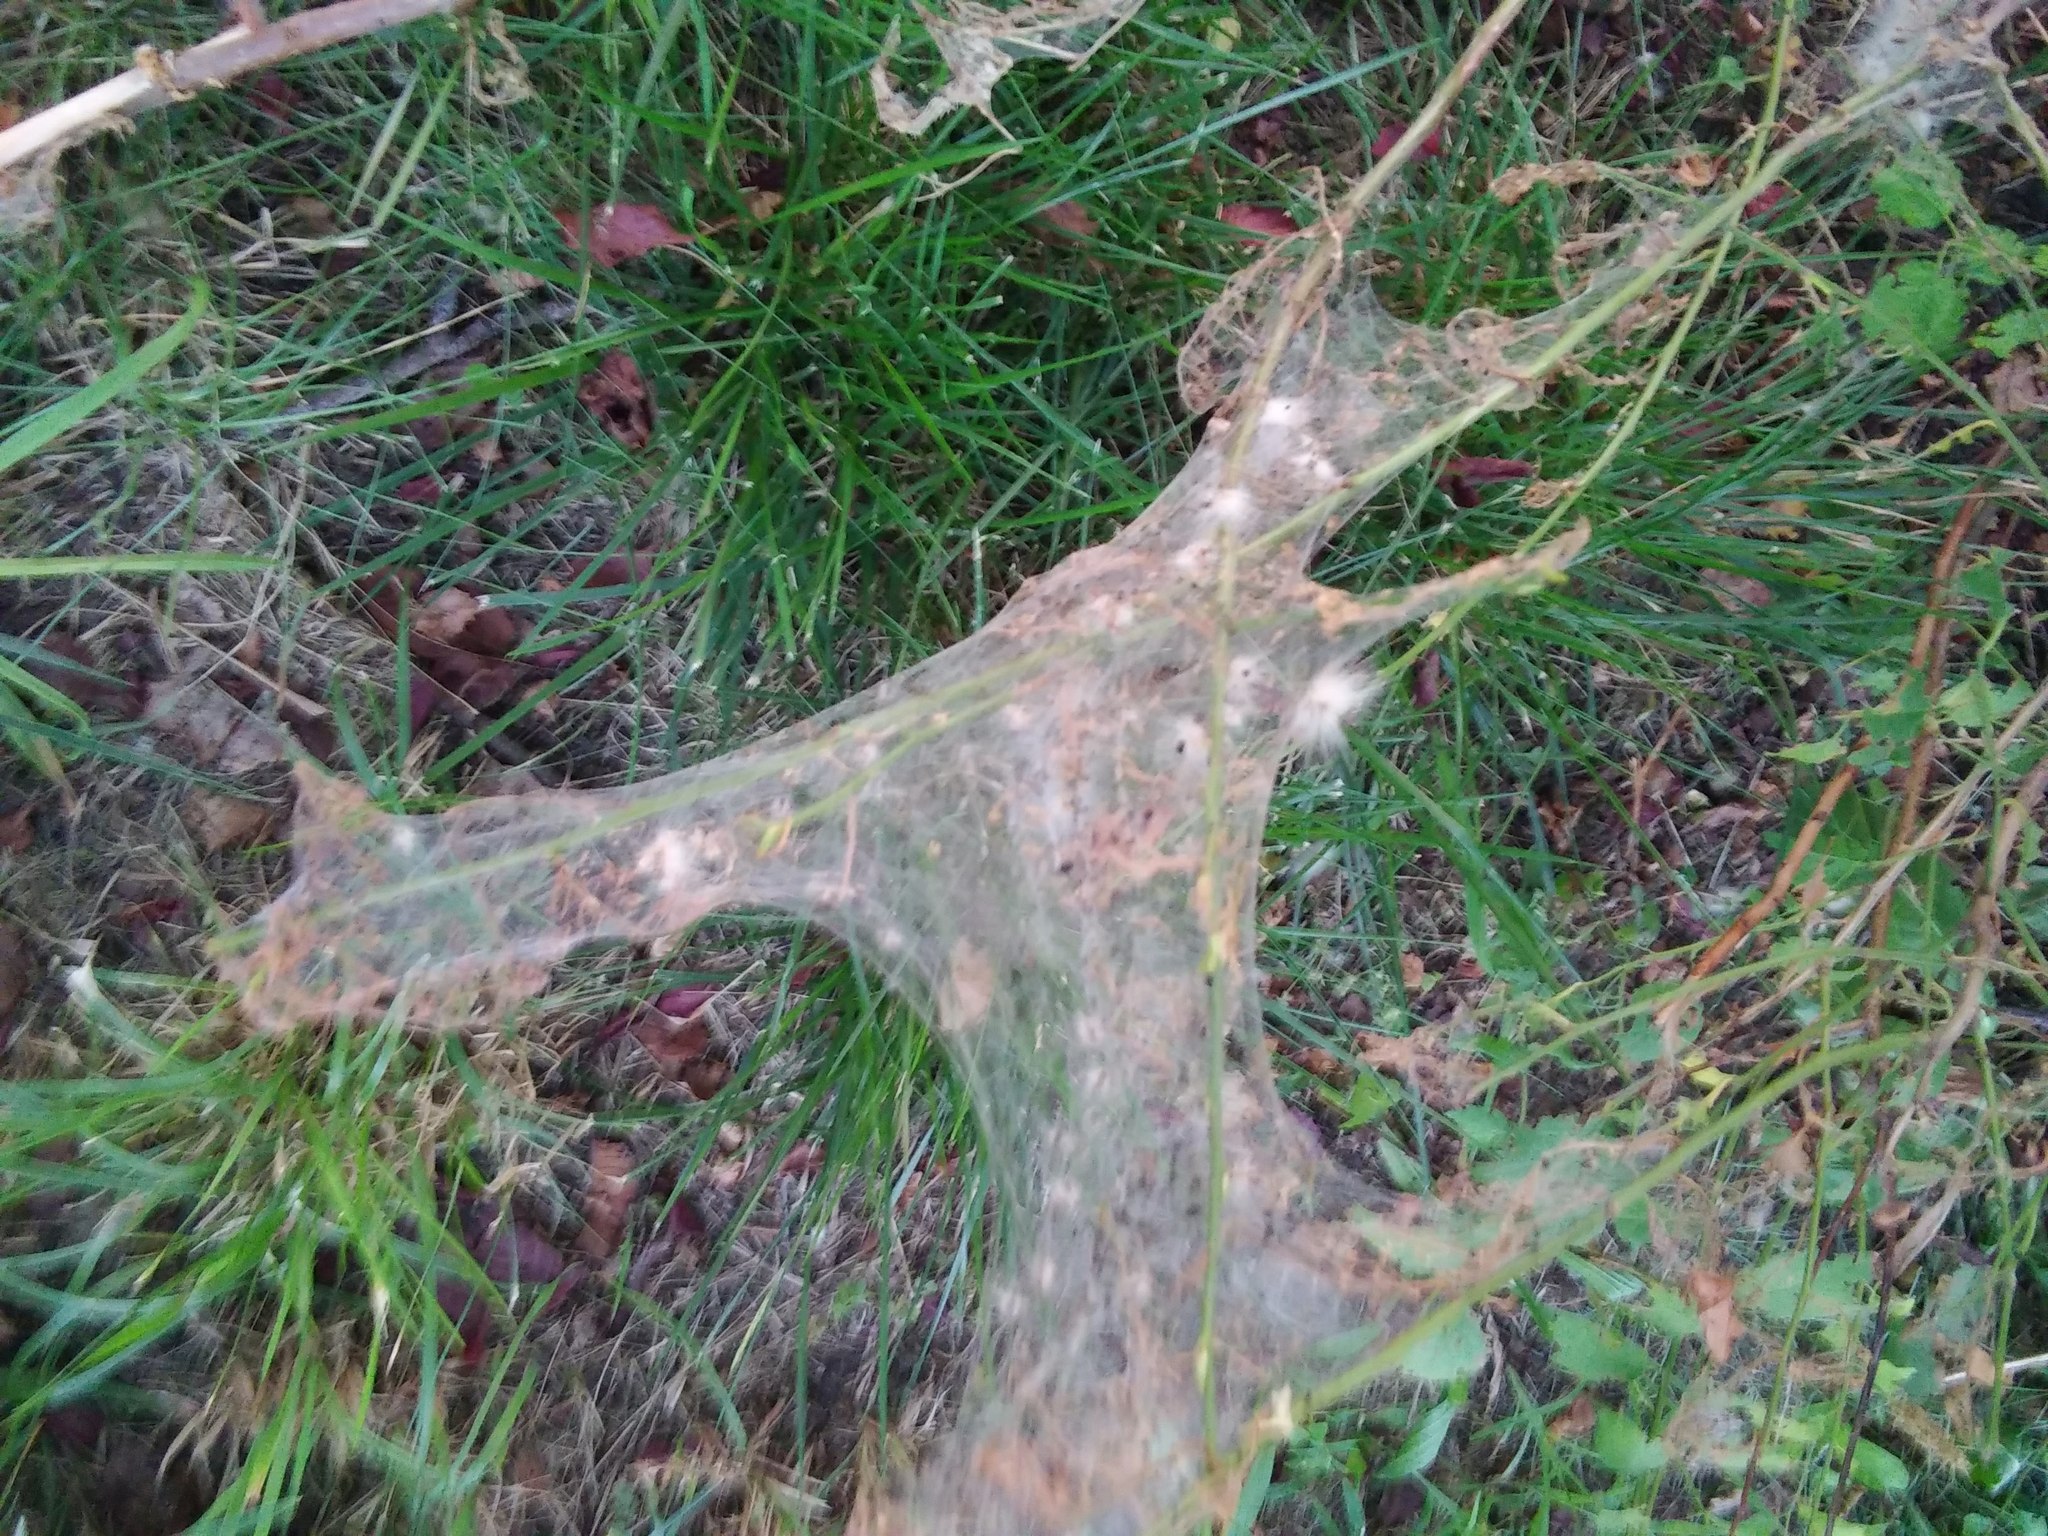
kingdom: Animalia
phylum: Arthropoda
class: Insecta
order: Lepidoptera
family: Erebidae
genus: Hyphantria
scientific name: Hyphantria cunea
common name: American white moth
